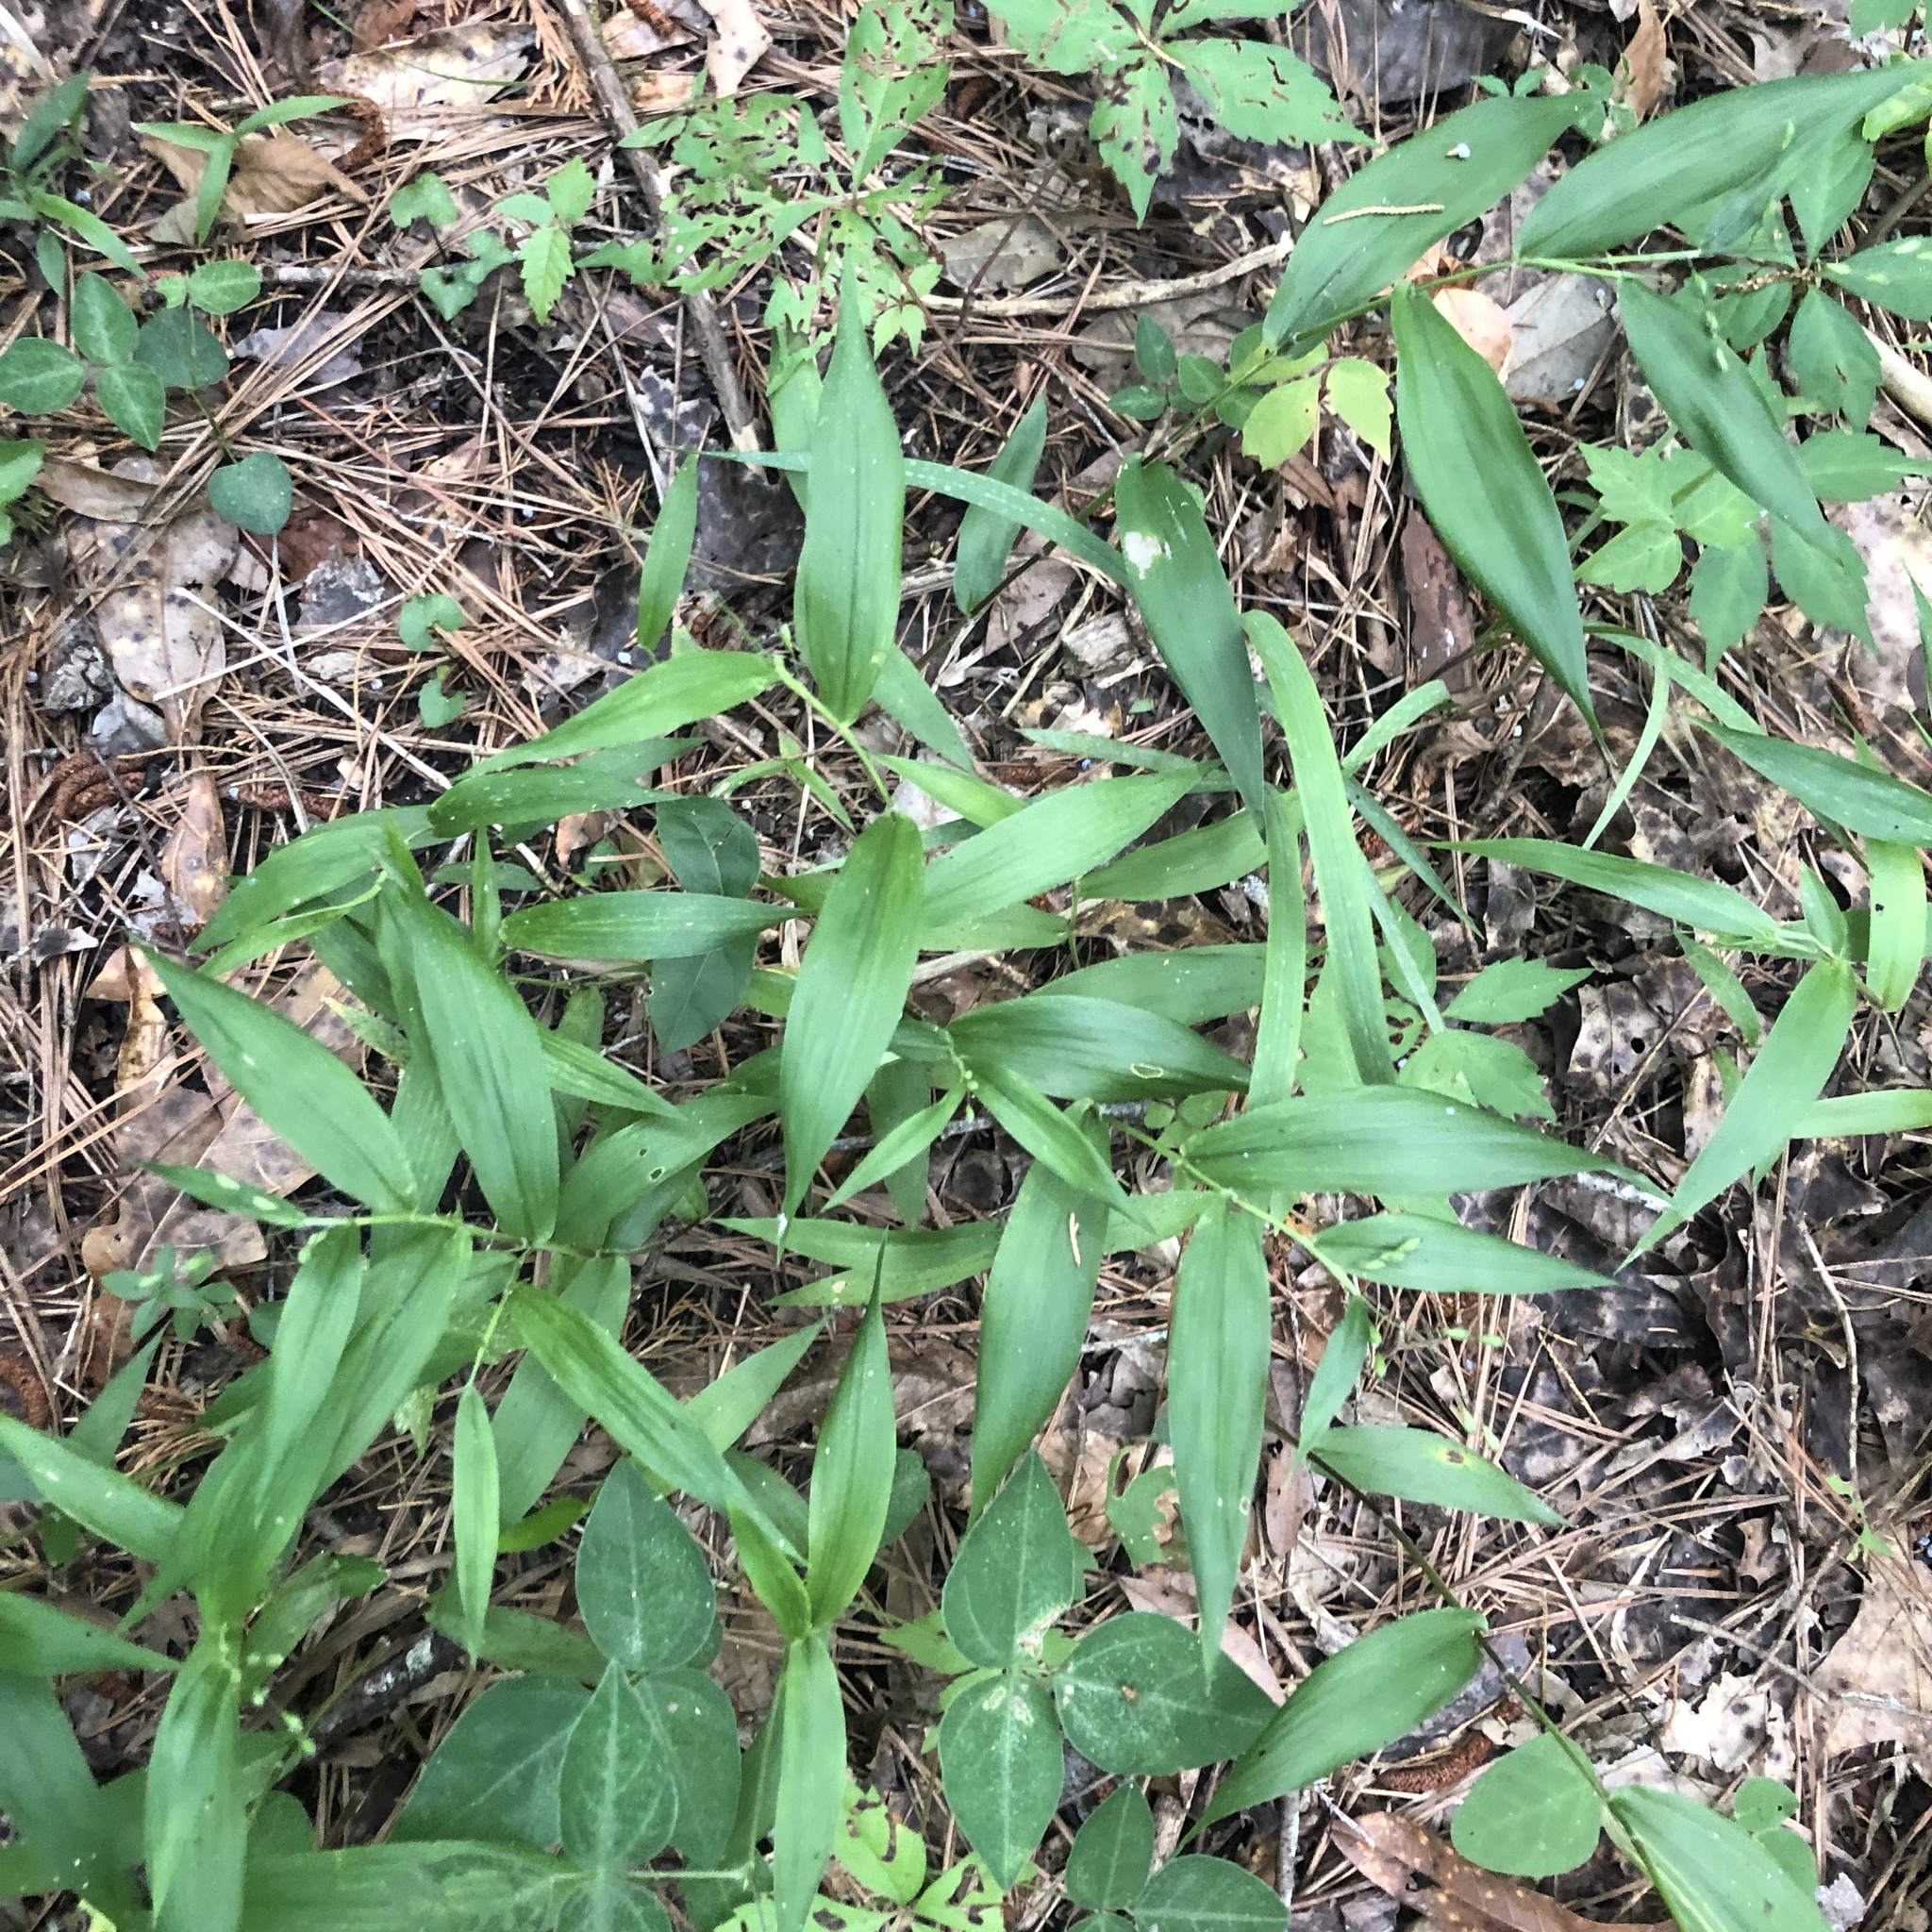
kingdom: Plantae
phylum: Tracheophyta
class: Liliopsida
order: Poales
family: Poaceae
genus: Dichanthelium
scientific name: Dichanthelium commutatum
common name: Variable witchgrass
